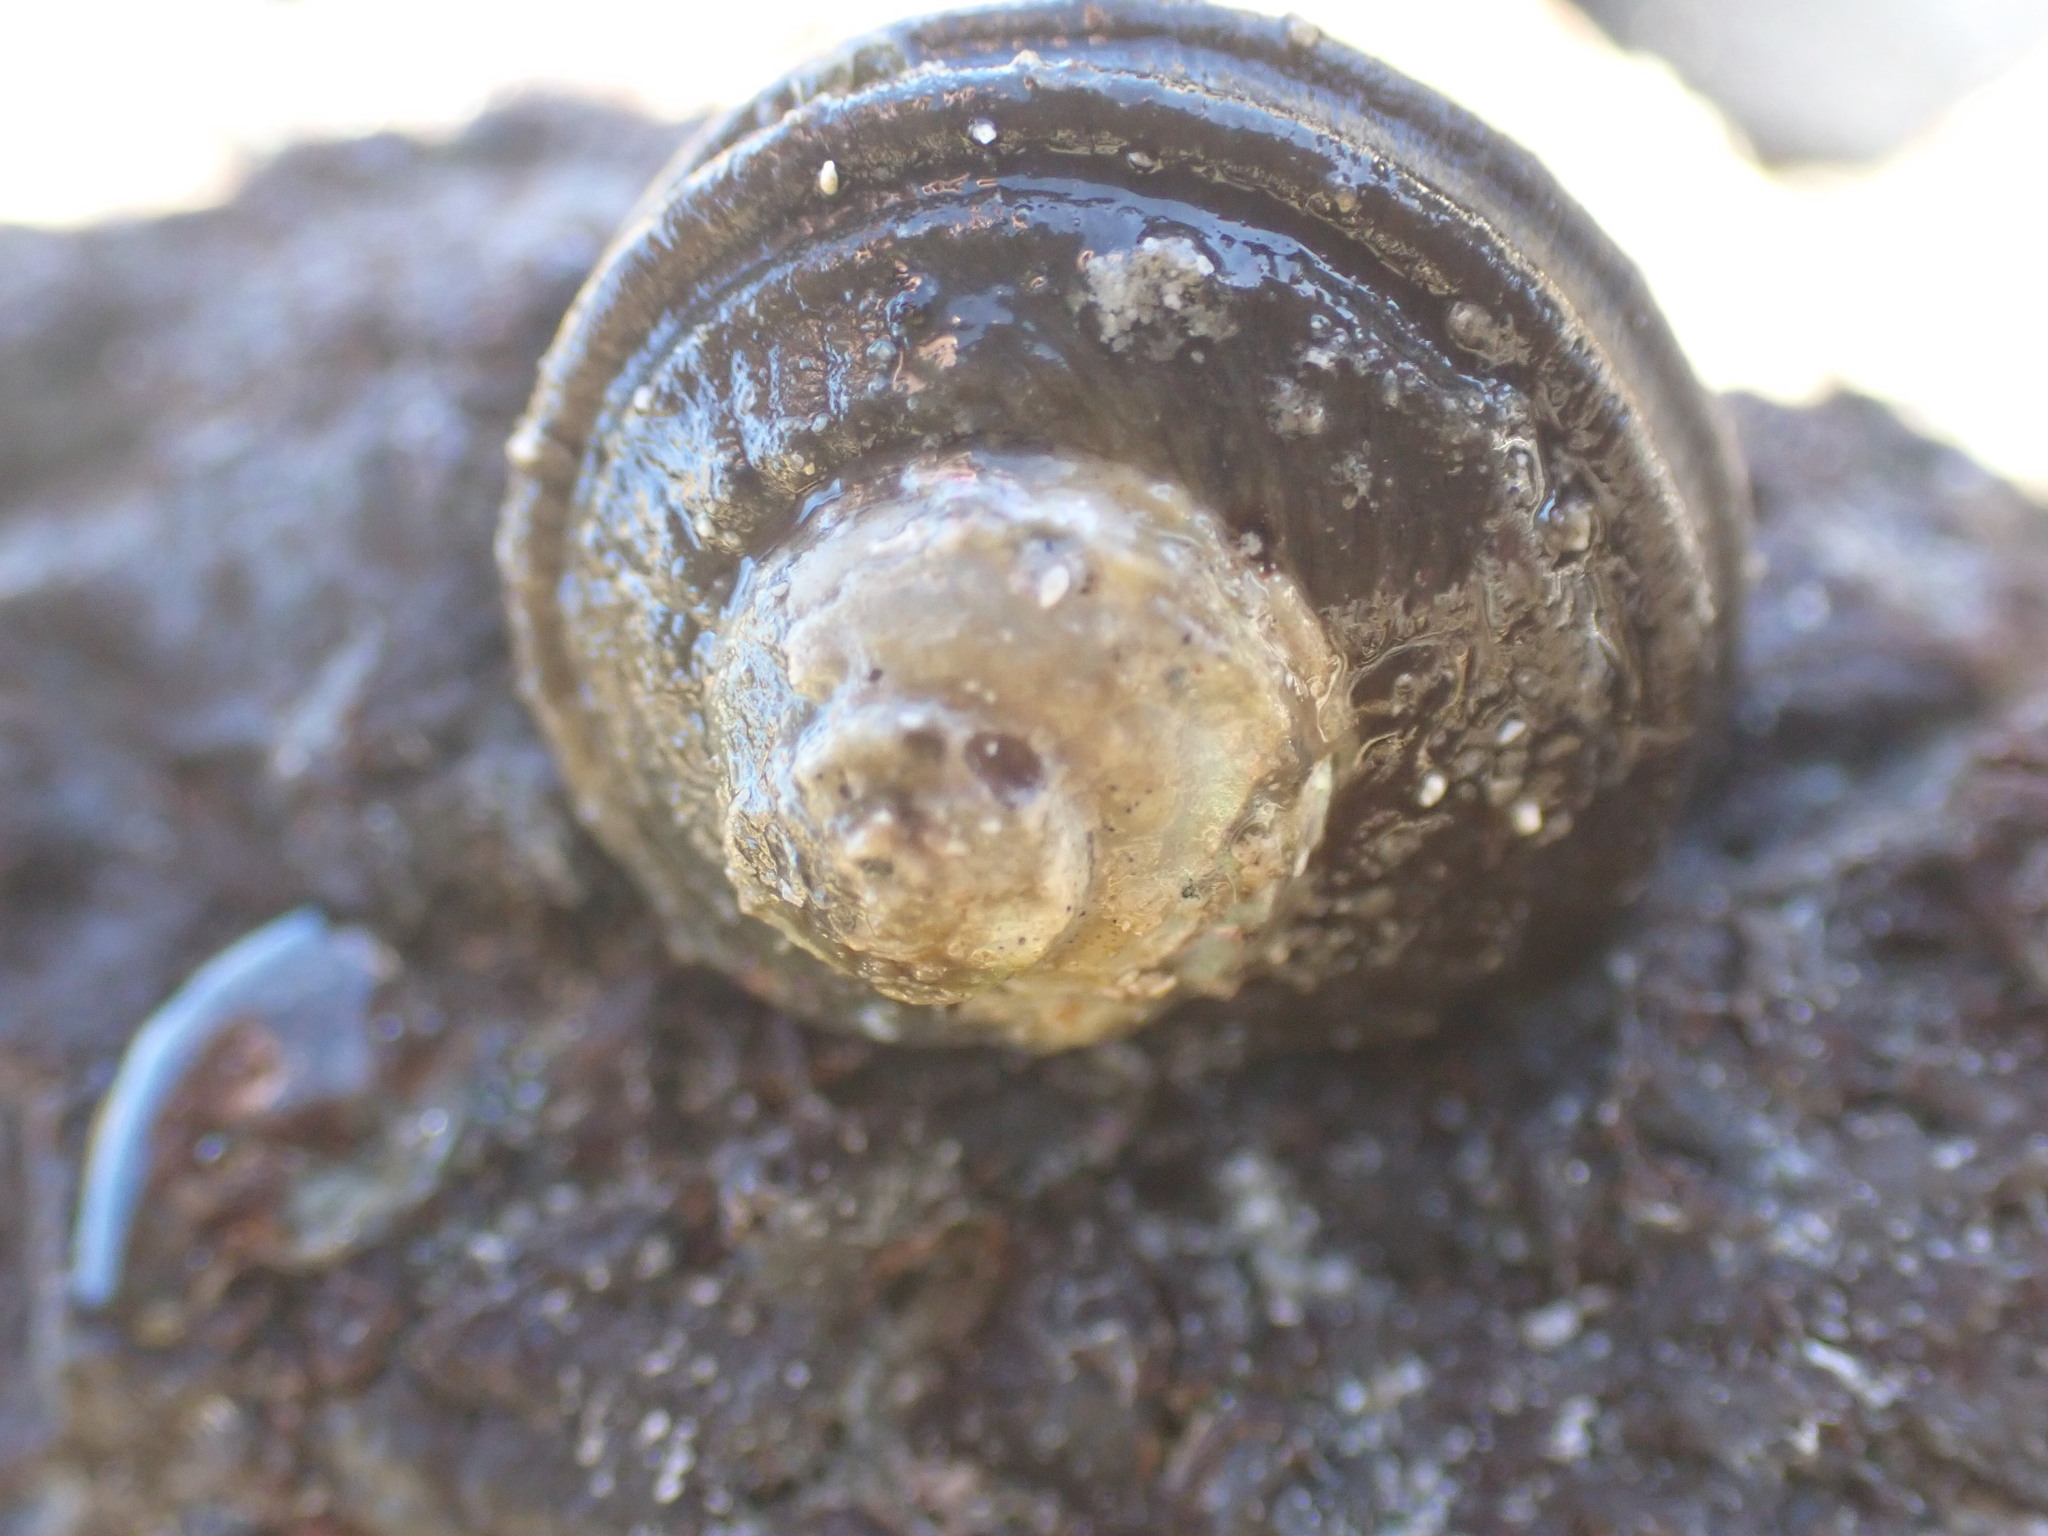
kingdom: Animalia
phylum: Mollusca
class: Gastropoda
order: Trochida
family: Turbinidae
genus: Lunella
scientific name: Lunella smaragda
